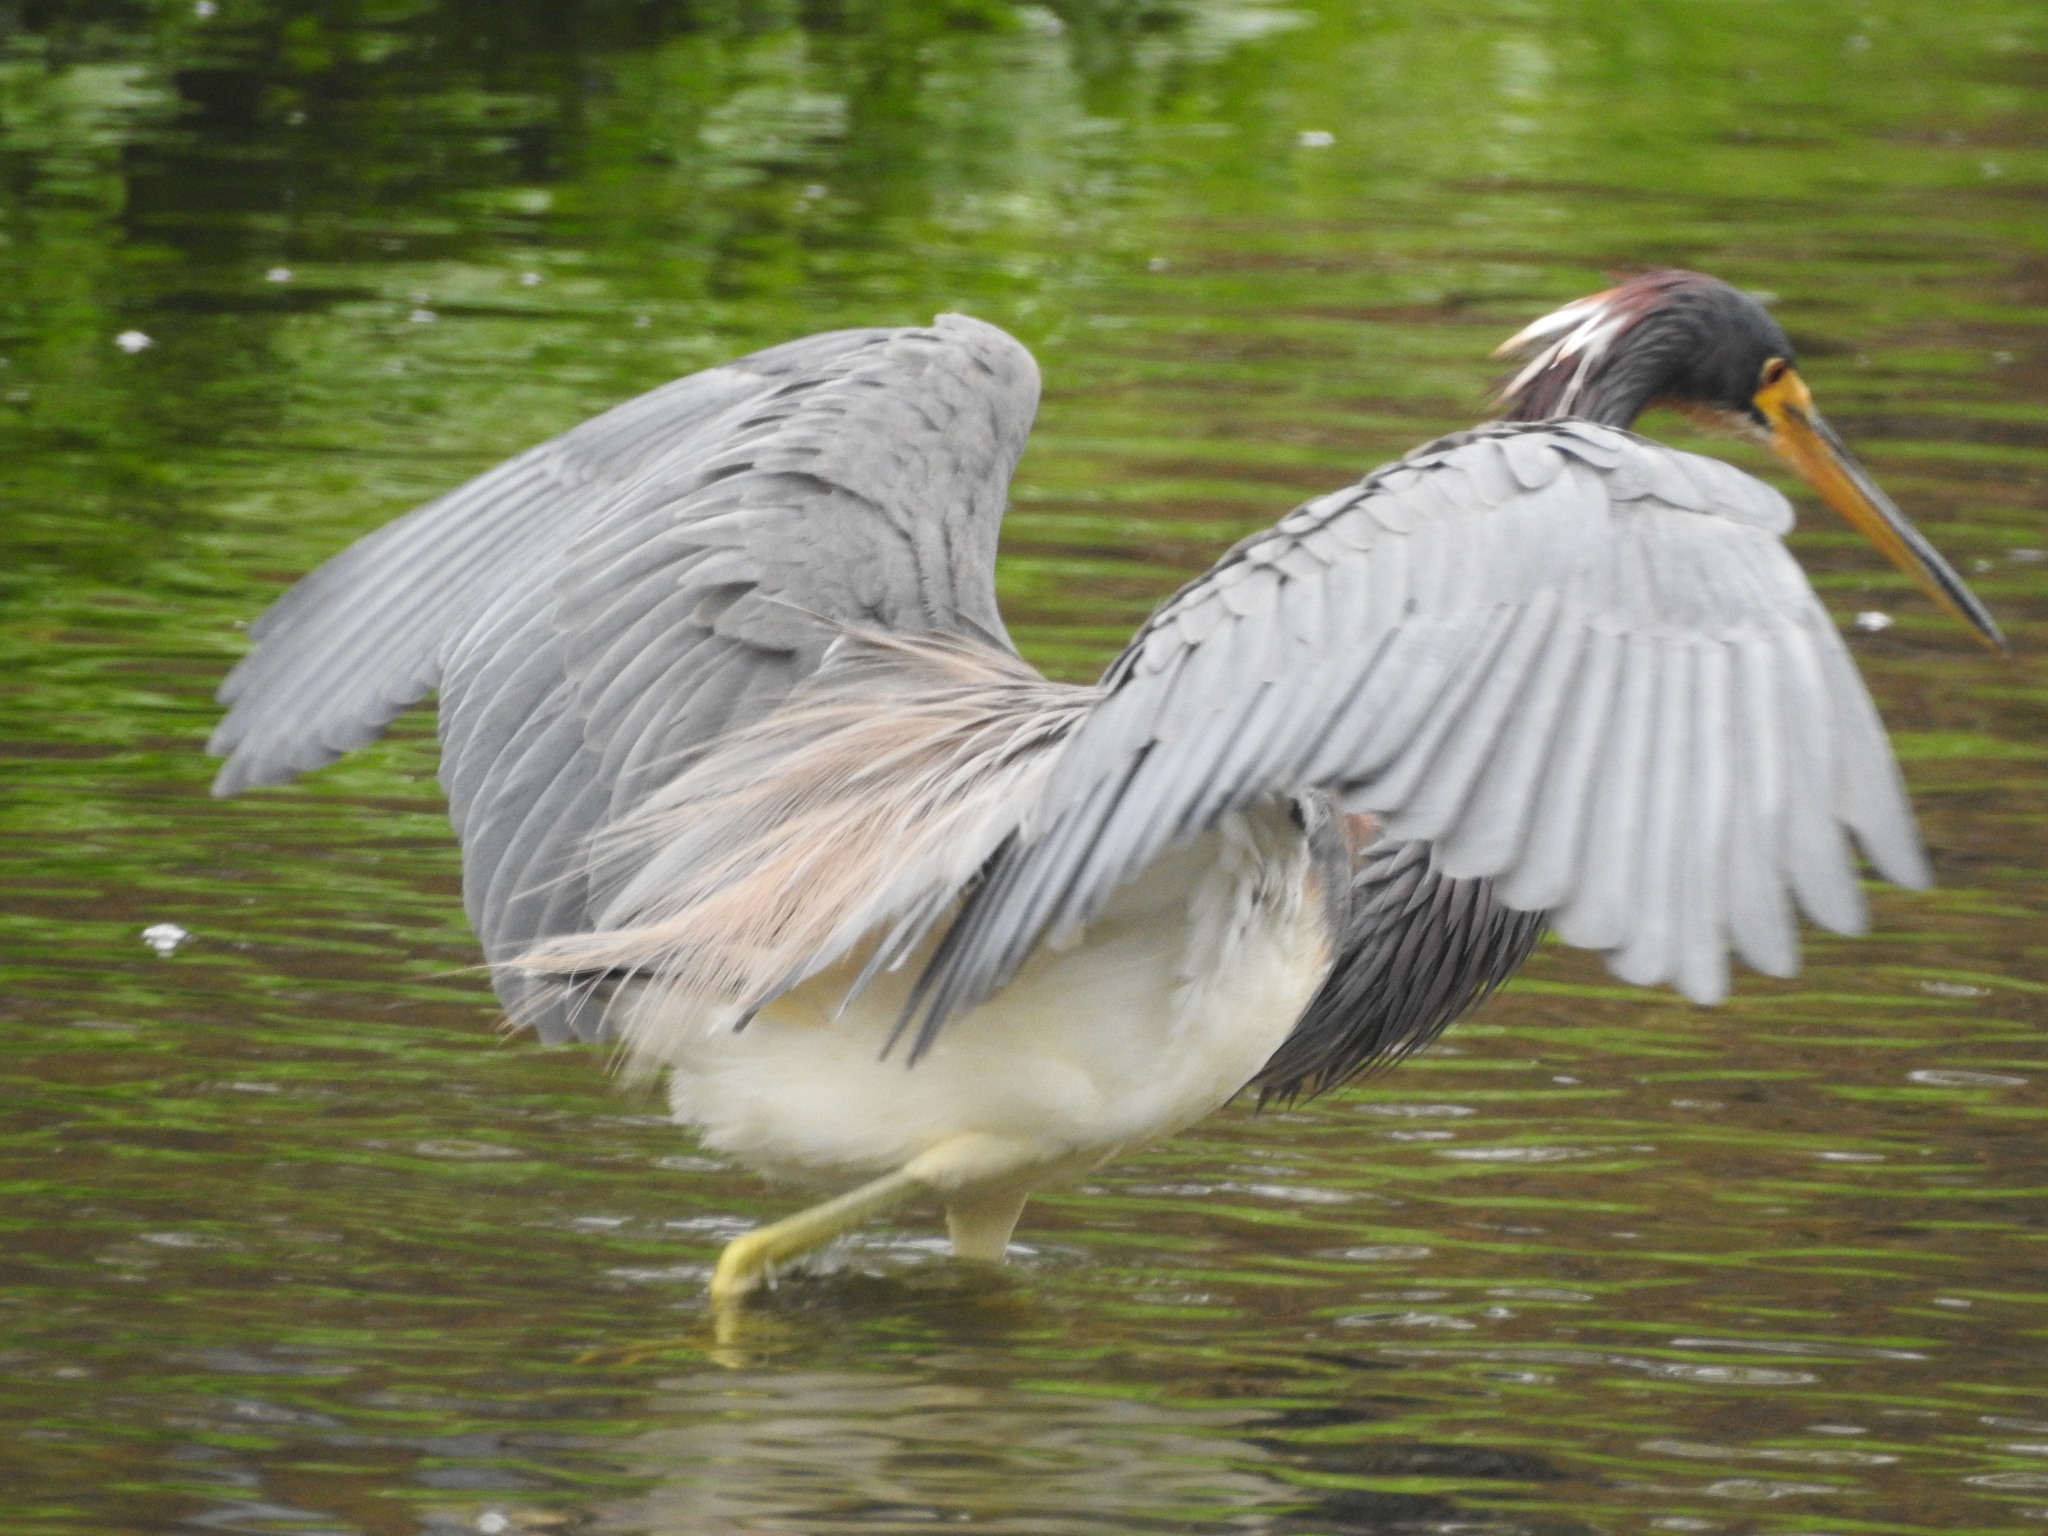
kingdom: Animalia
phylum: Chordata
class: Aves
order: Pelecaniformes
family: Ardeidae
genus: Egretta
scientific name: Egretta tricolor
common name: Tricolored heron
